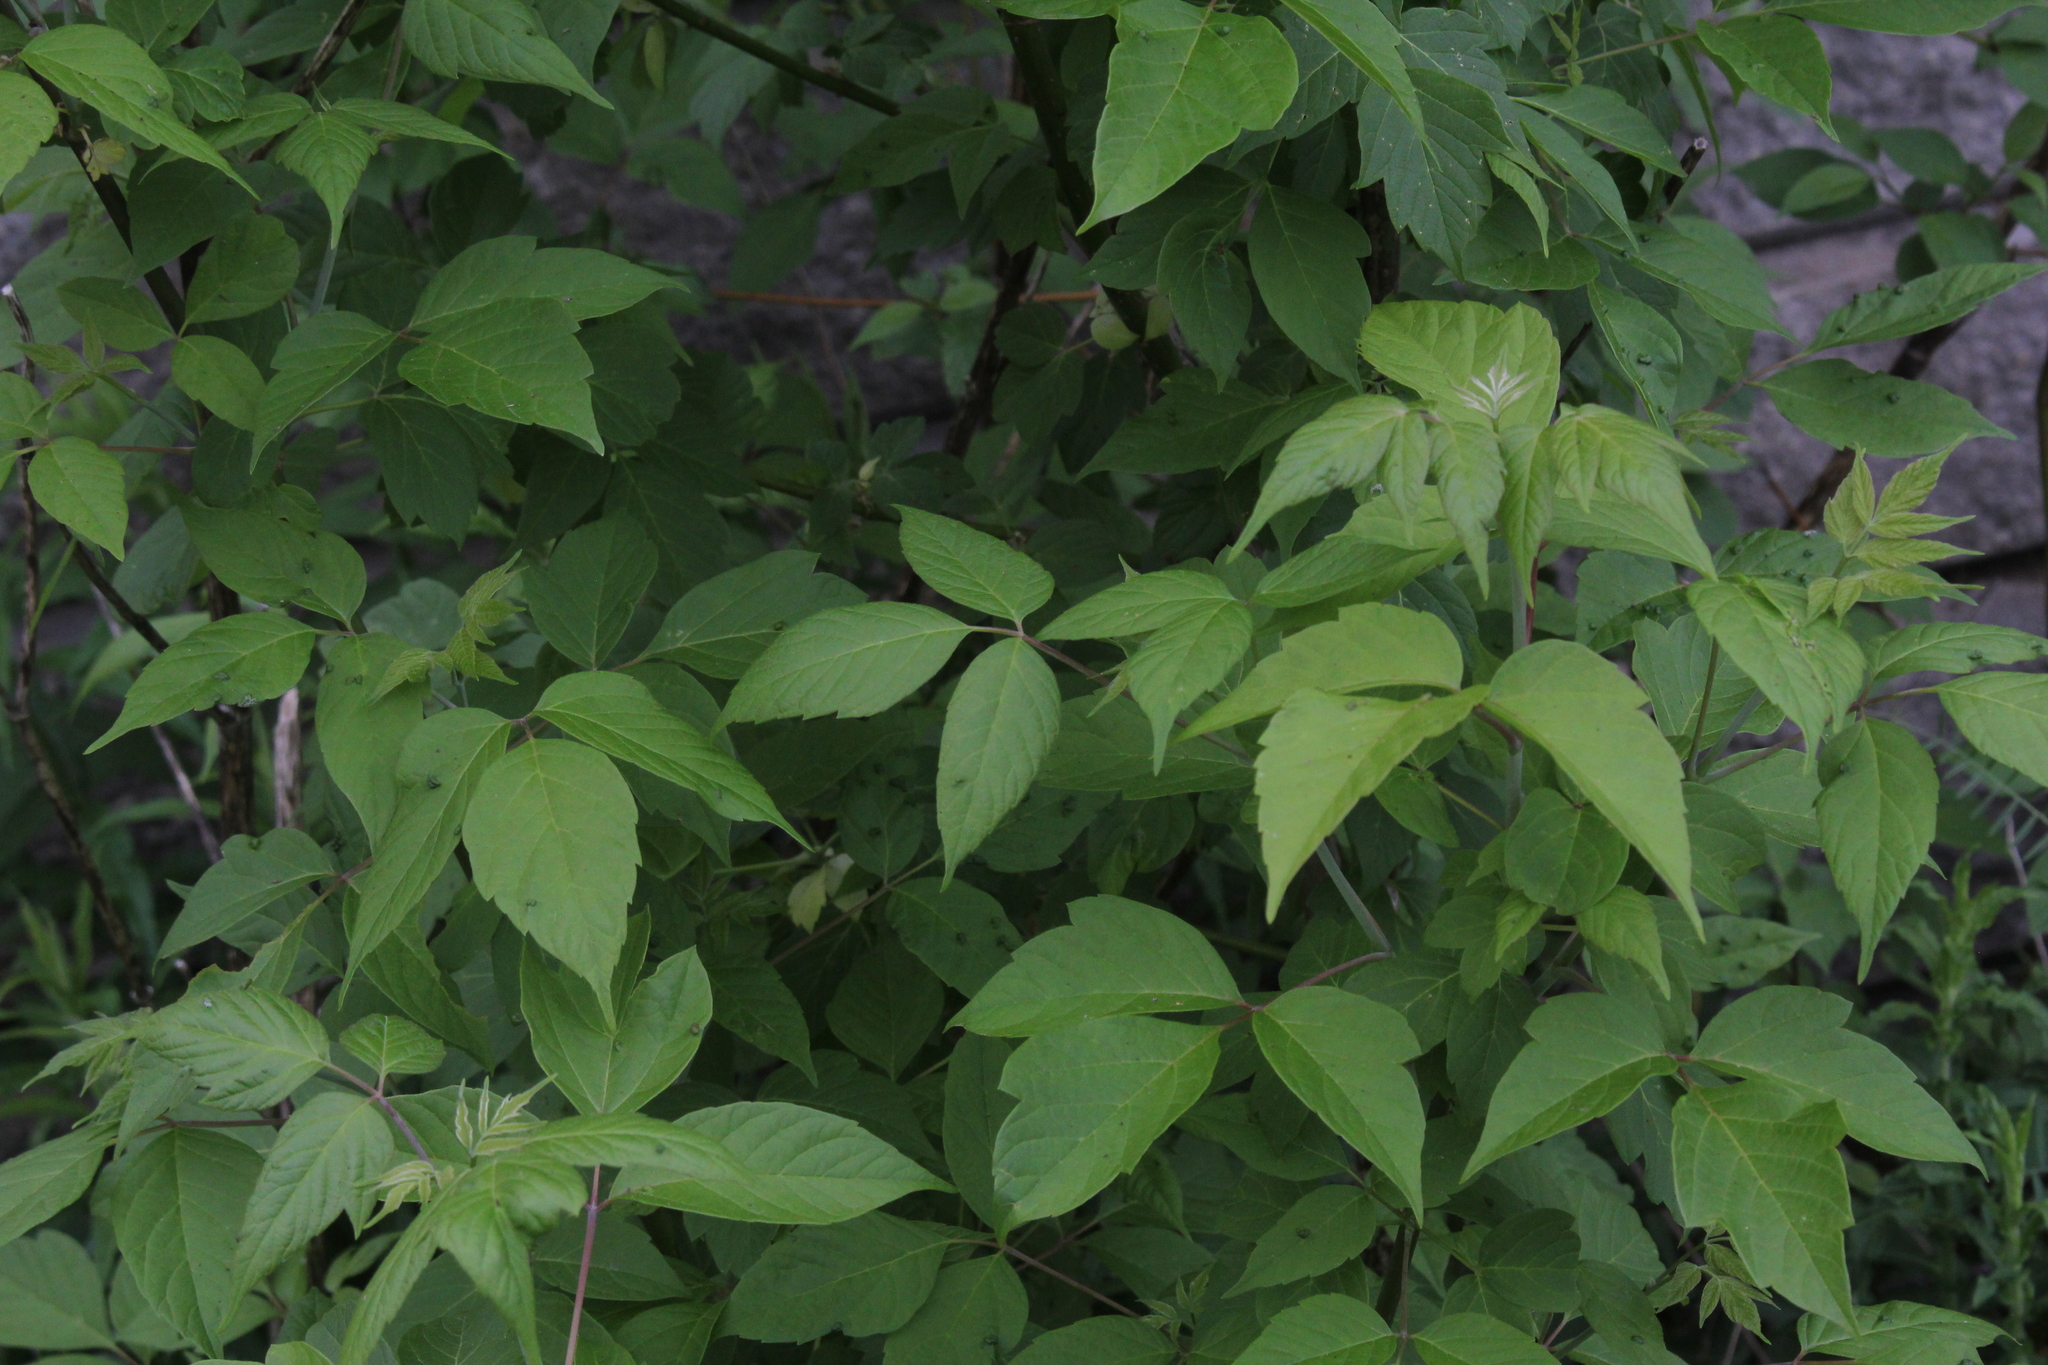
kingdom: Plantae
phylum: Tracheophyta
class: Magnoliopsida
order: Sapindales
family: Sapindaceae
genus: Acer
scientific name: Acer negundo
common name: Ashleaf maple
